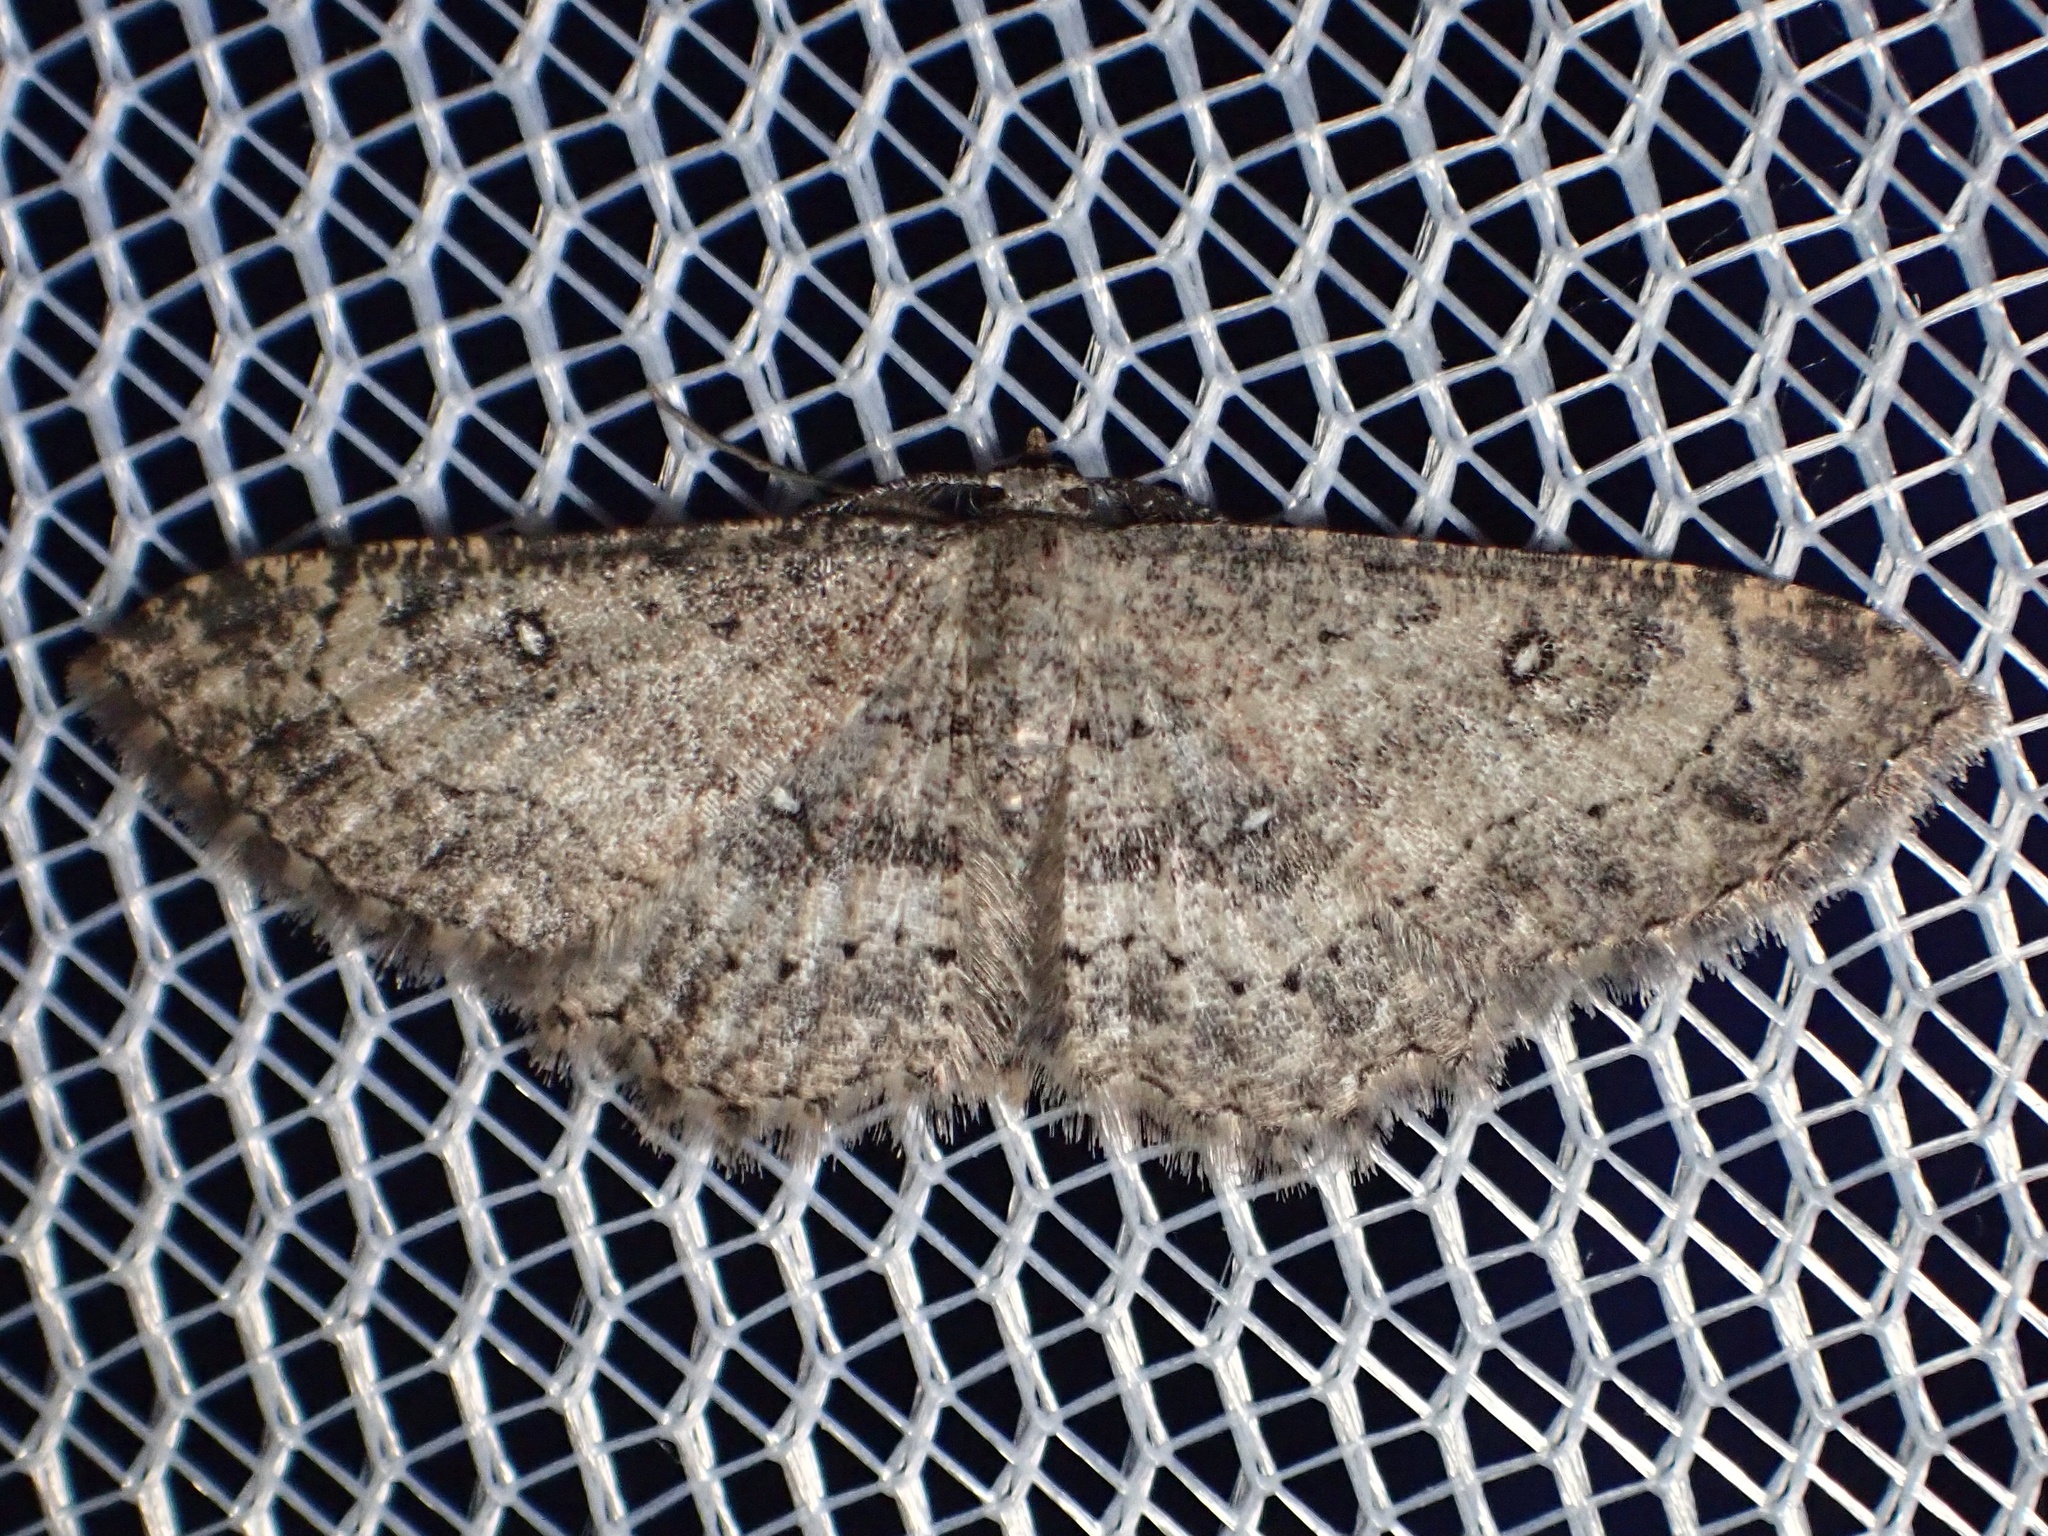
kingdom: Animalia
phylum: Arthropoda
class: Insecta
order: Lepidoptera
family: Geometridae
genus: Cyclophora
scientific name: Cyclophora nanaria
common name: Cankerworm
